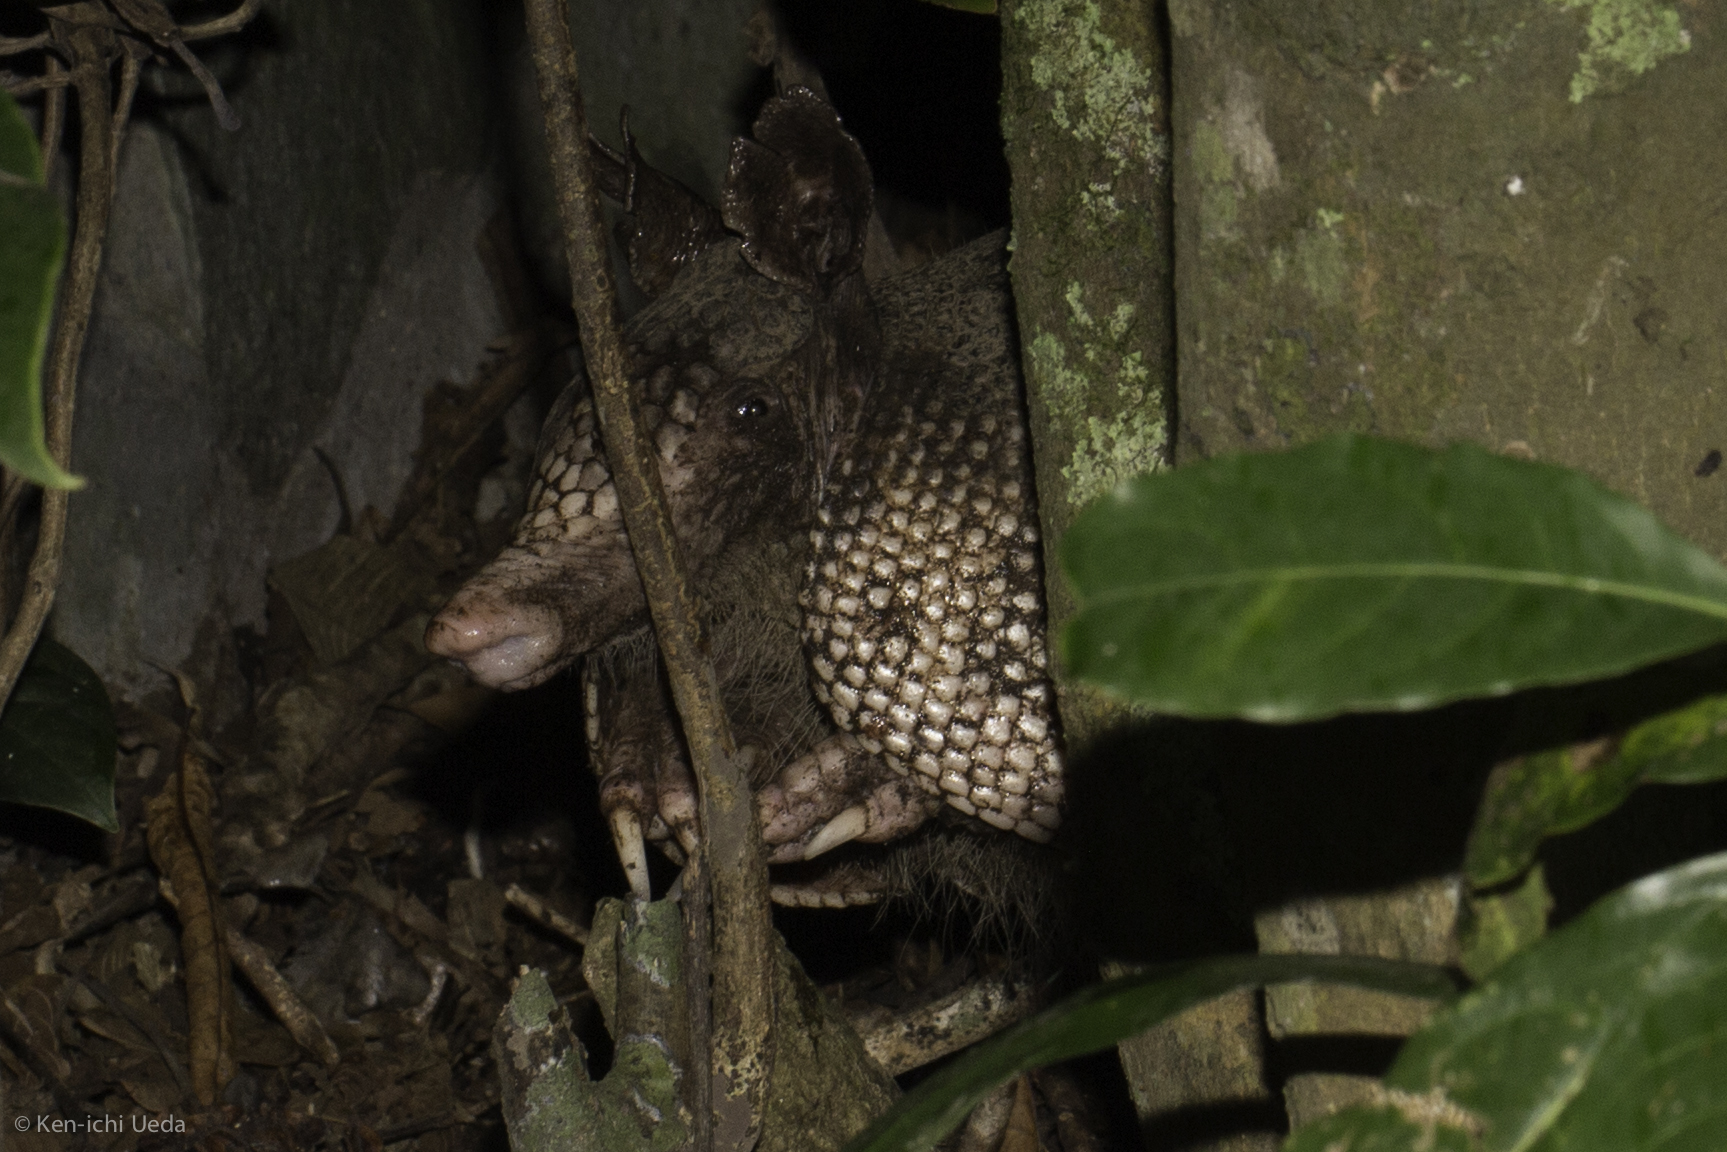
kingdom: Animalia
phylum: Chordata
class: Mammalia
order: Cingulata
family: Dasypodidae
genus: Dasypus
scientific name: Dasypus novemcinctus
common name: Nine-banded armadillo
